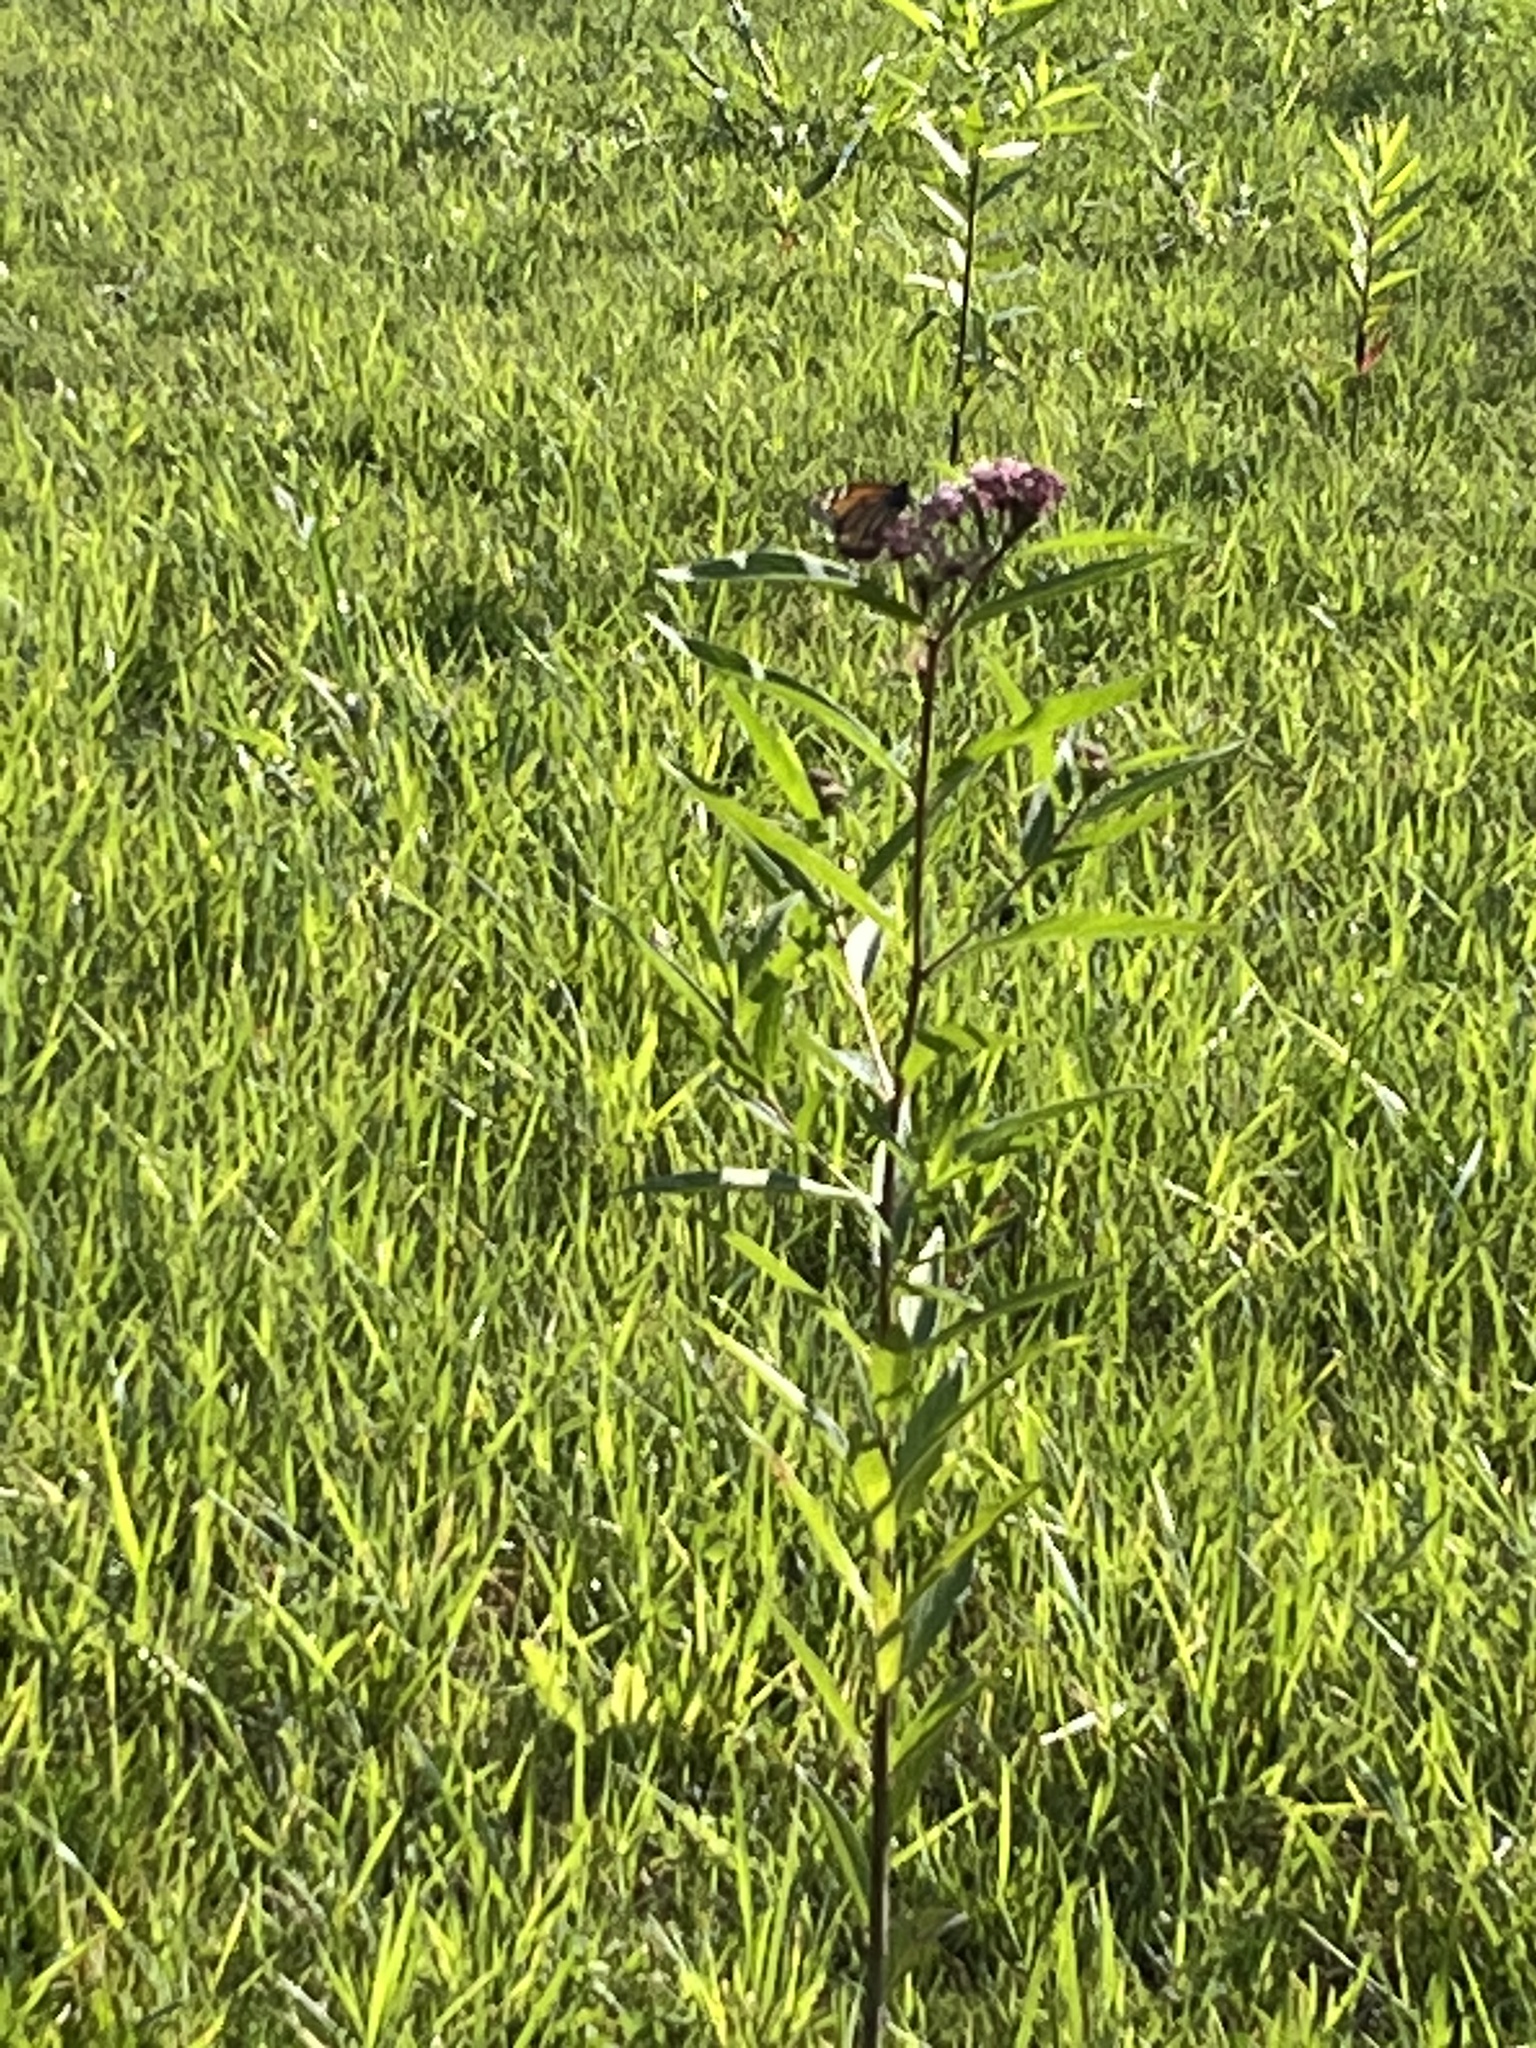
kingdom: Plantae
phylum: Tracheophyta
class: Magnoliopsida
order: Gentianales
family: Apocynaceae
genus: Asclepias
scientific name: Asclepias incarnata
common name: Swamp milkweed
